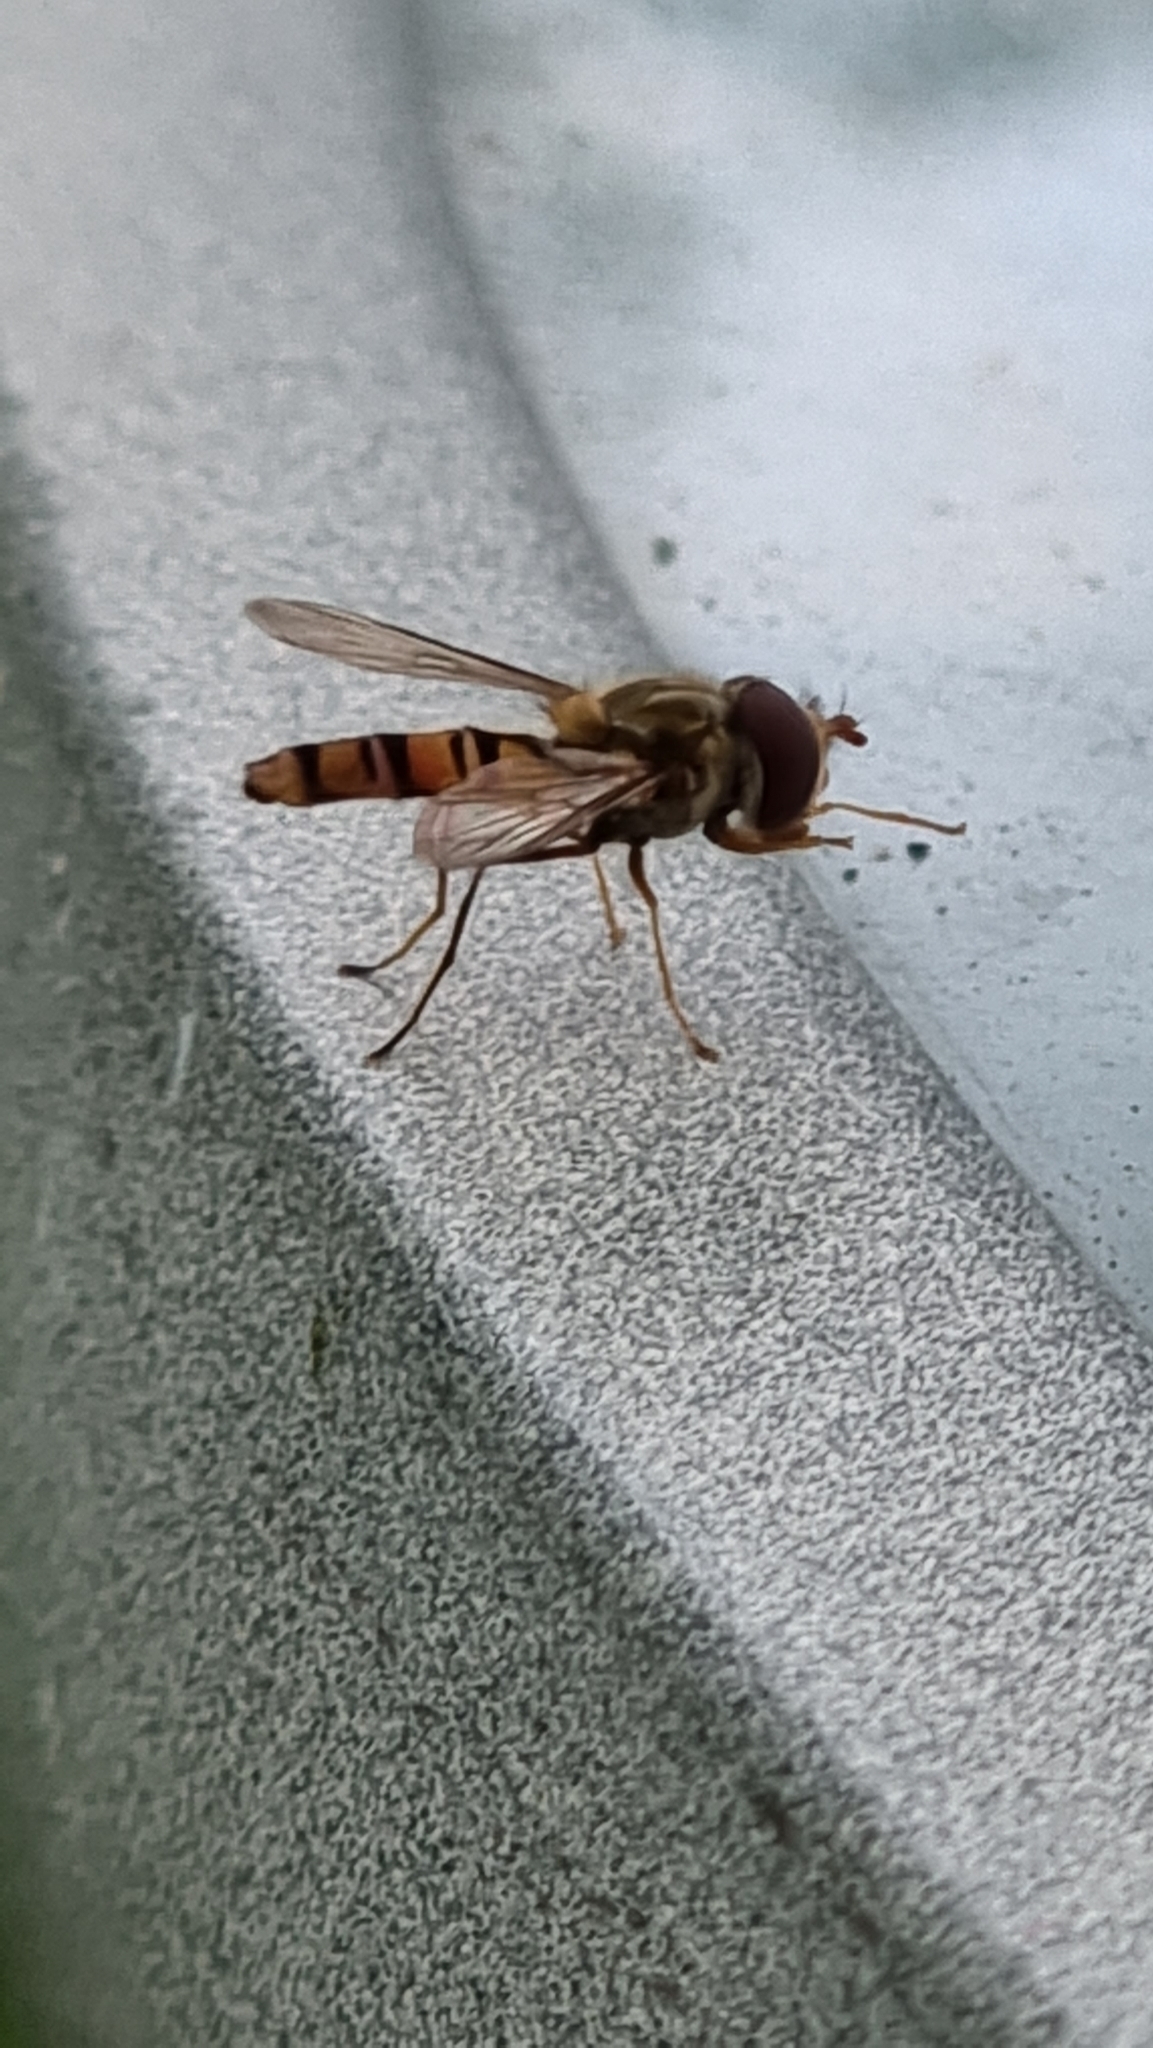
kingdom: Animalia
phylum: Arthropoda
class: Insecta
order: Diptera
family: Syrphidae
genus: Episyrphus
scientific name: Episyrphus balteatus
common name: Marmalade hoverfly
